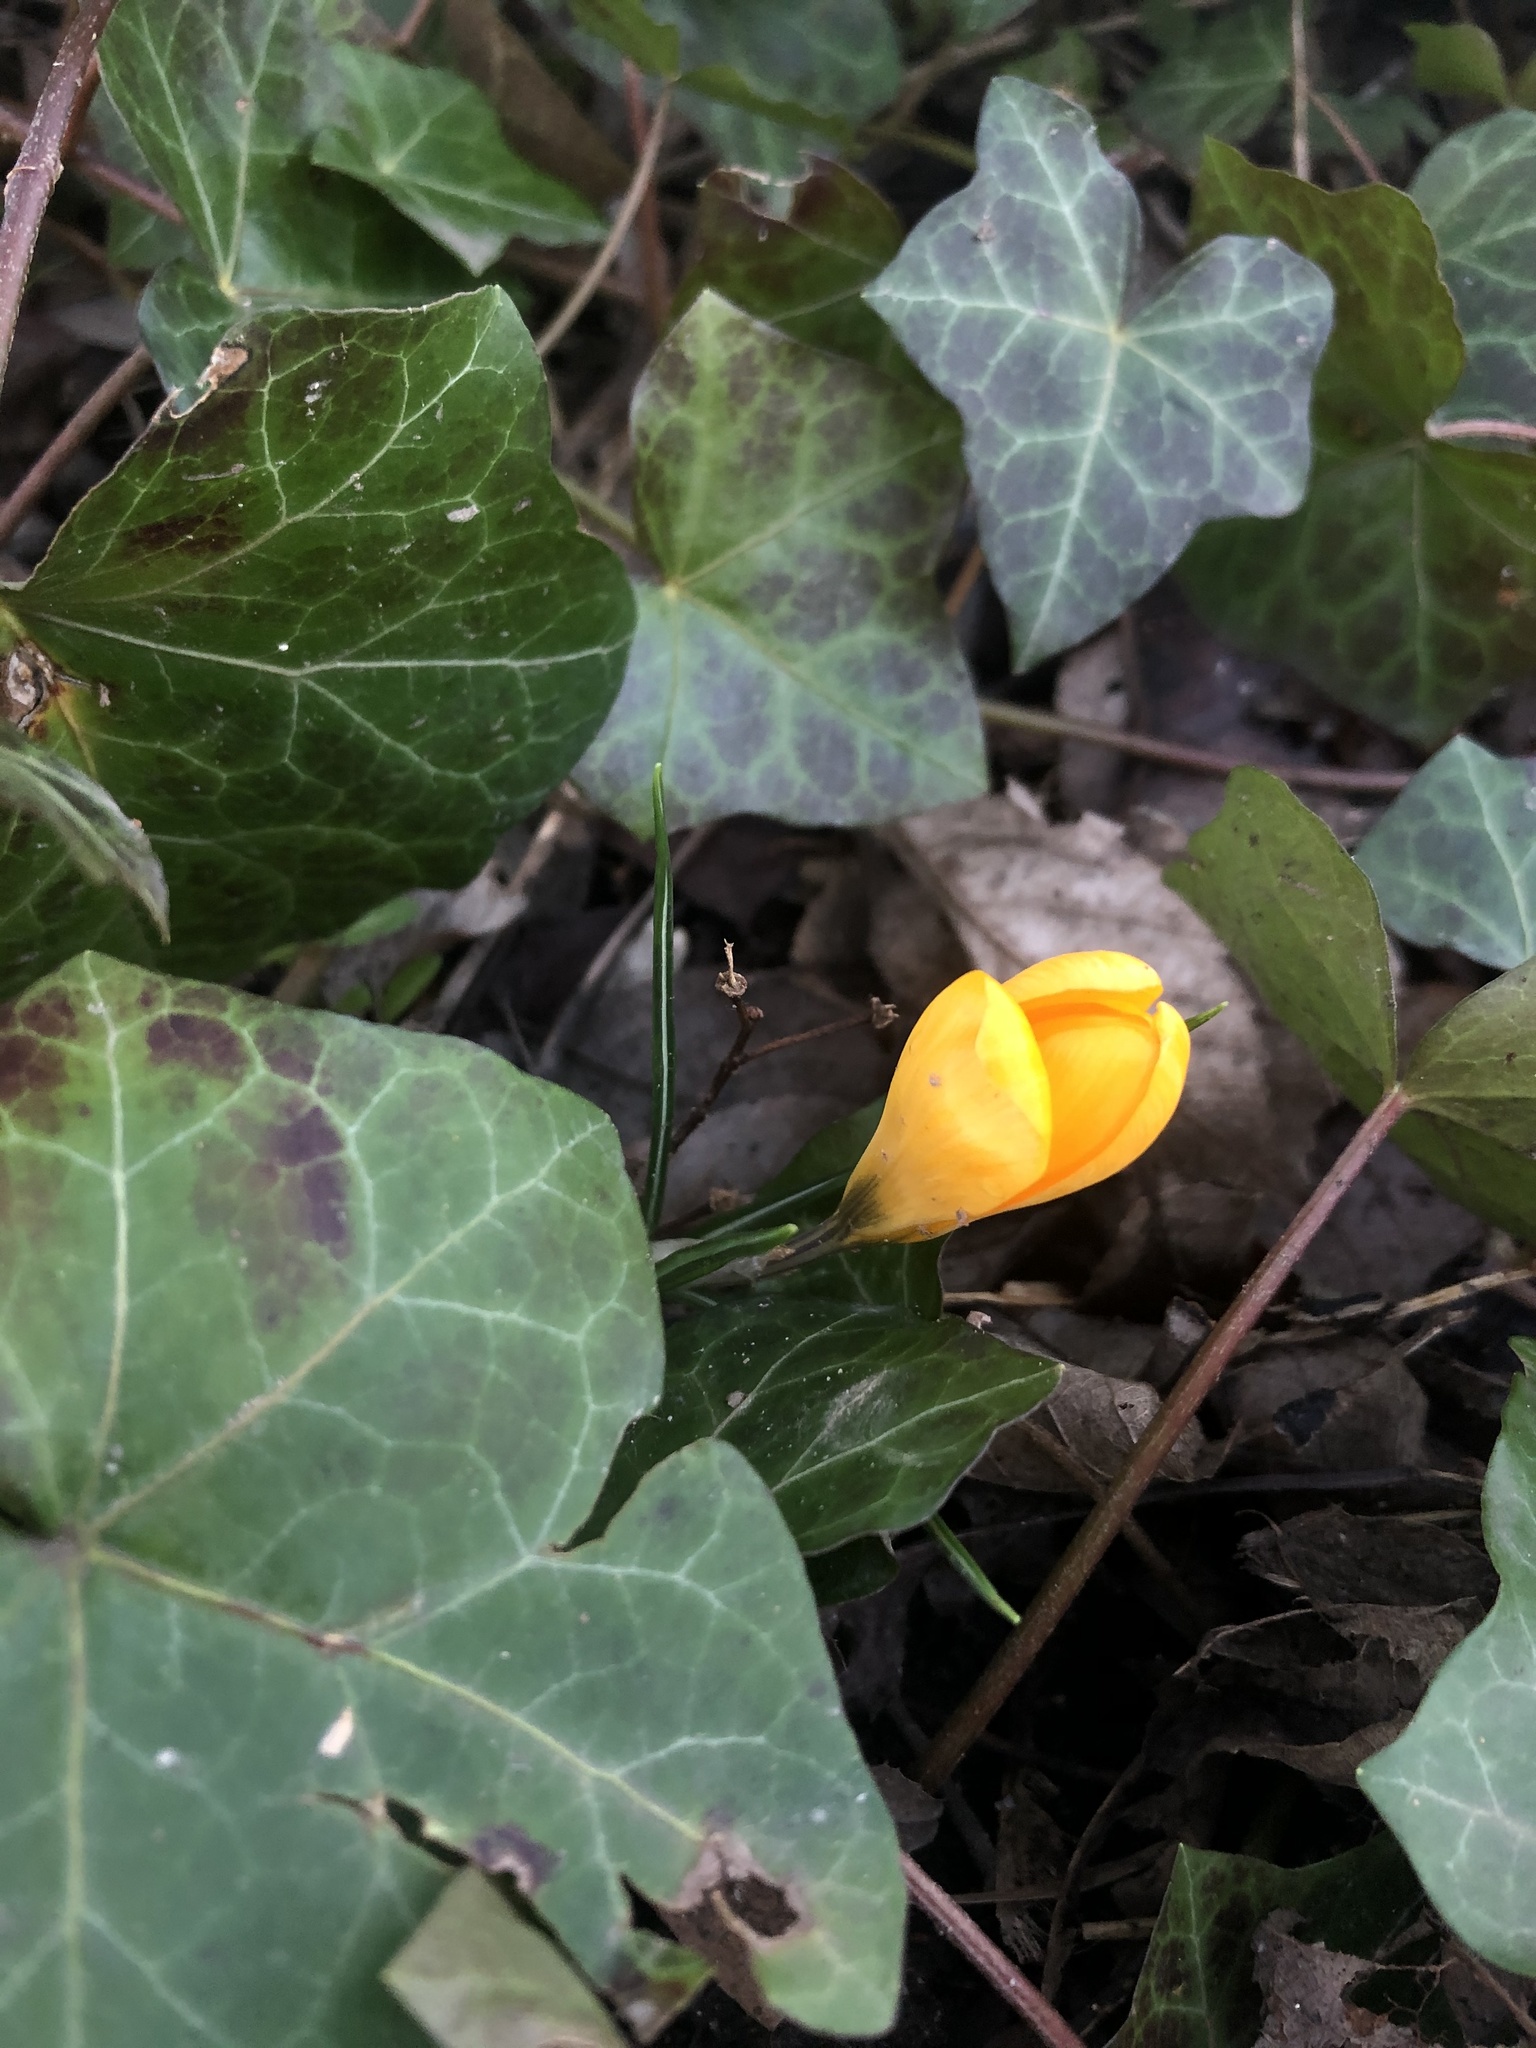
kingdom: Plantae
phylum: Tracheophyta
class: Liliopsida
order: Asparagales
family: Iridaceae
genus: Crocus
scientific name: Crocus luteus
